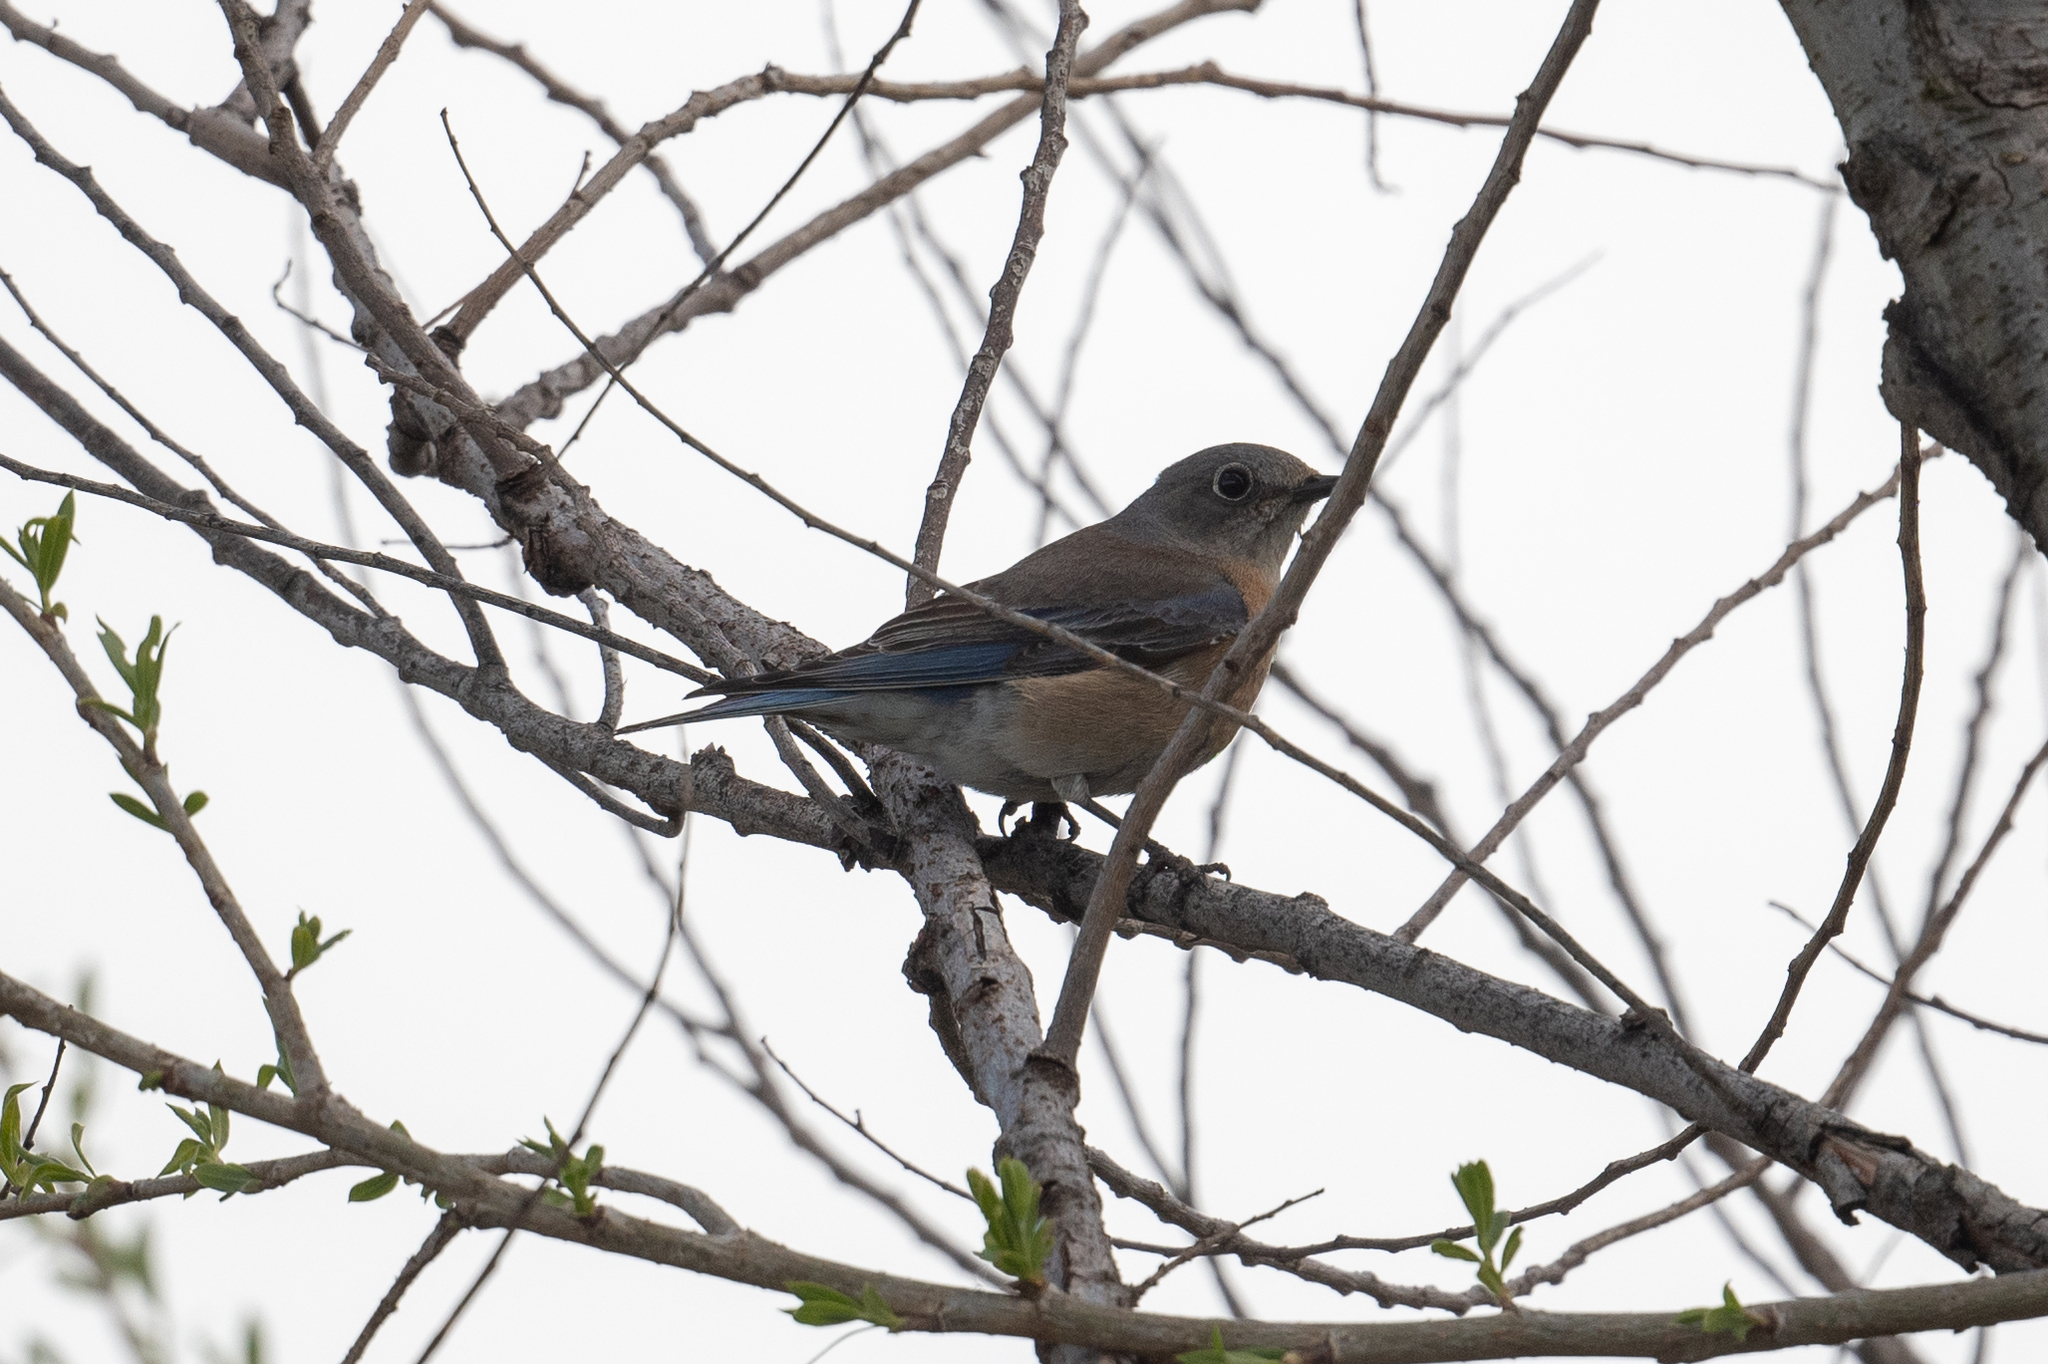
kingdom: Animalia
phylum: Chordata
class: Aves
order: Passeriformes
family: Turdidae
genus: Sialia
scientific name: Sialia mexicana
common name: Western bluebird
